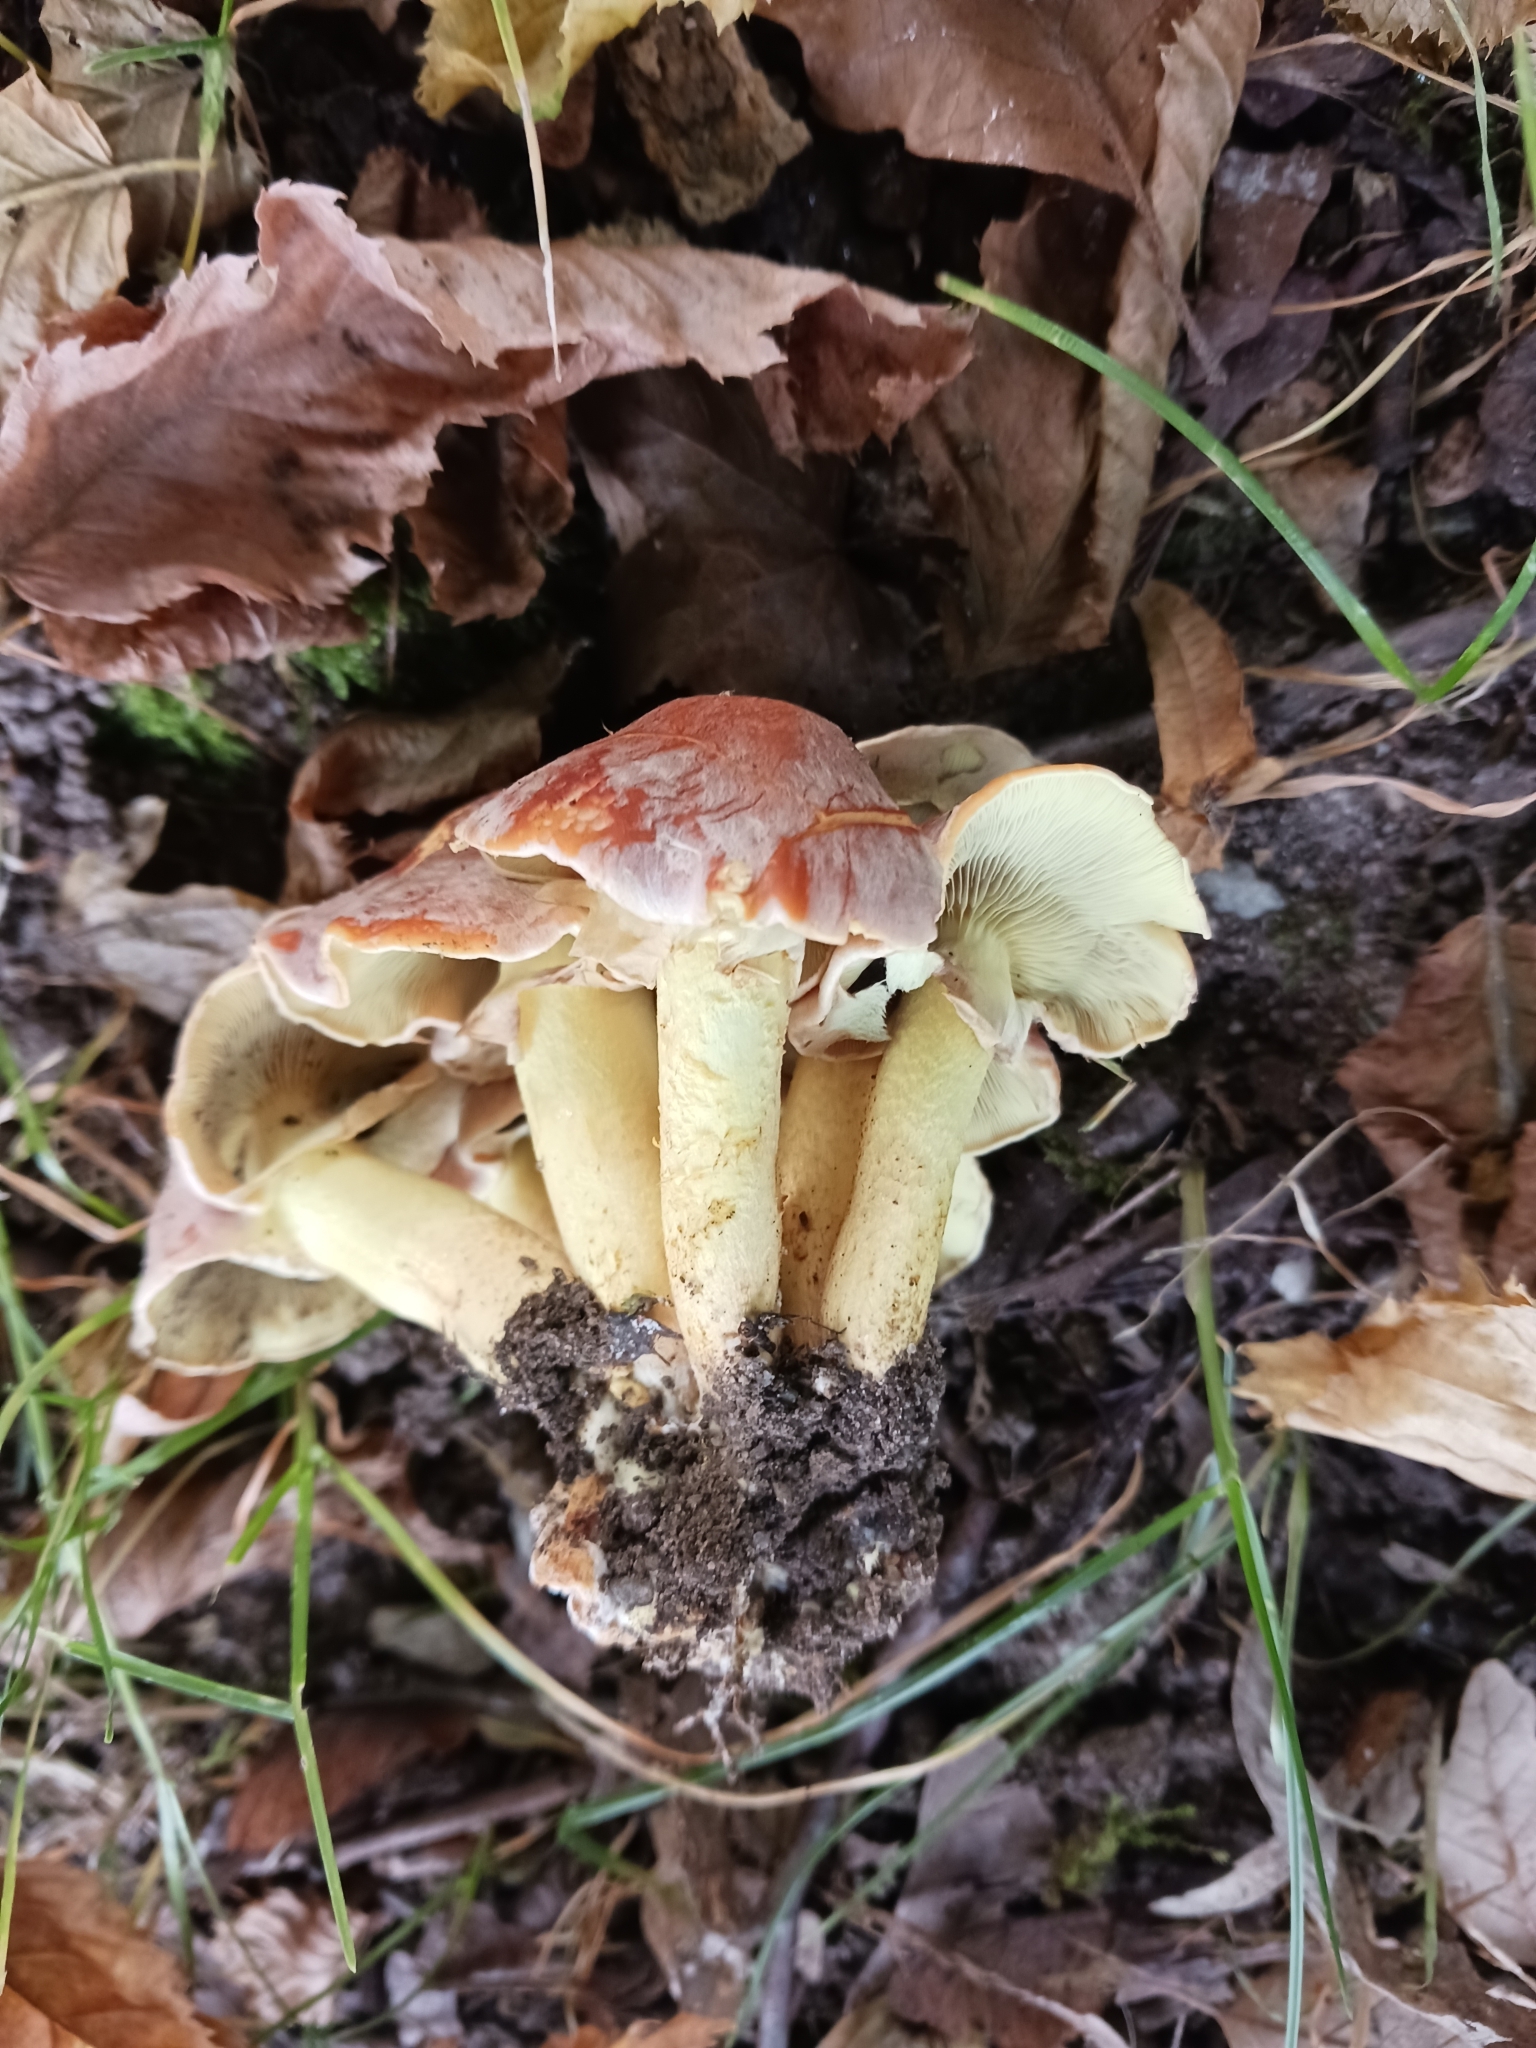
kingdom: Fungi
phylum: Basidiomycota
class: Agaricomycetes
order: Agaricales
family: Strophariaceae
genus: Hypholoma
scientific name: Hypholoma fasciculare
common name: Sulphur tuft
